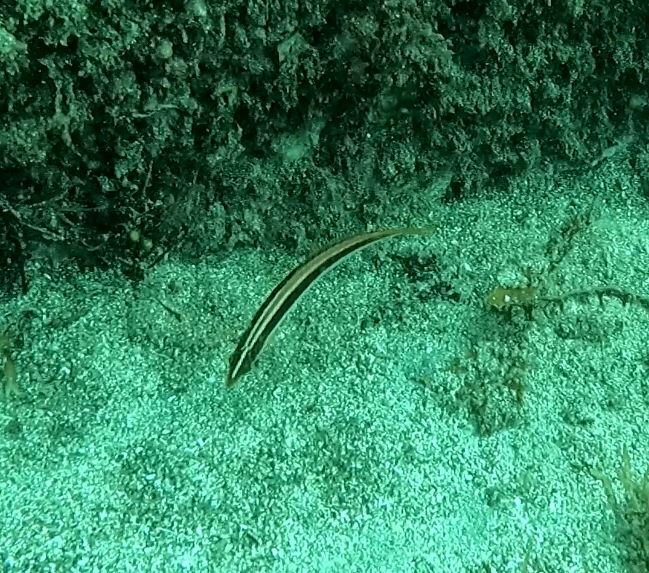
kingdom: Animalia
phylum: Chordata
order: Perciformes
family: Labridae
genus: Ophthalmolepis
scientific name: Ophthalmolepis lineolata
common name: Maori wrasse
